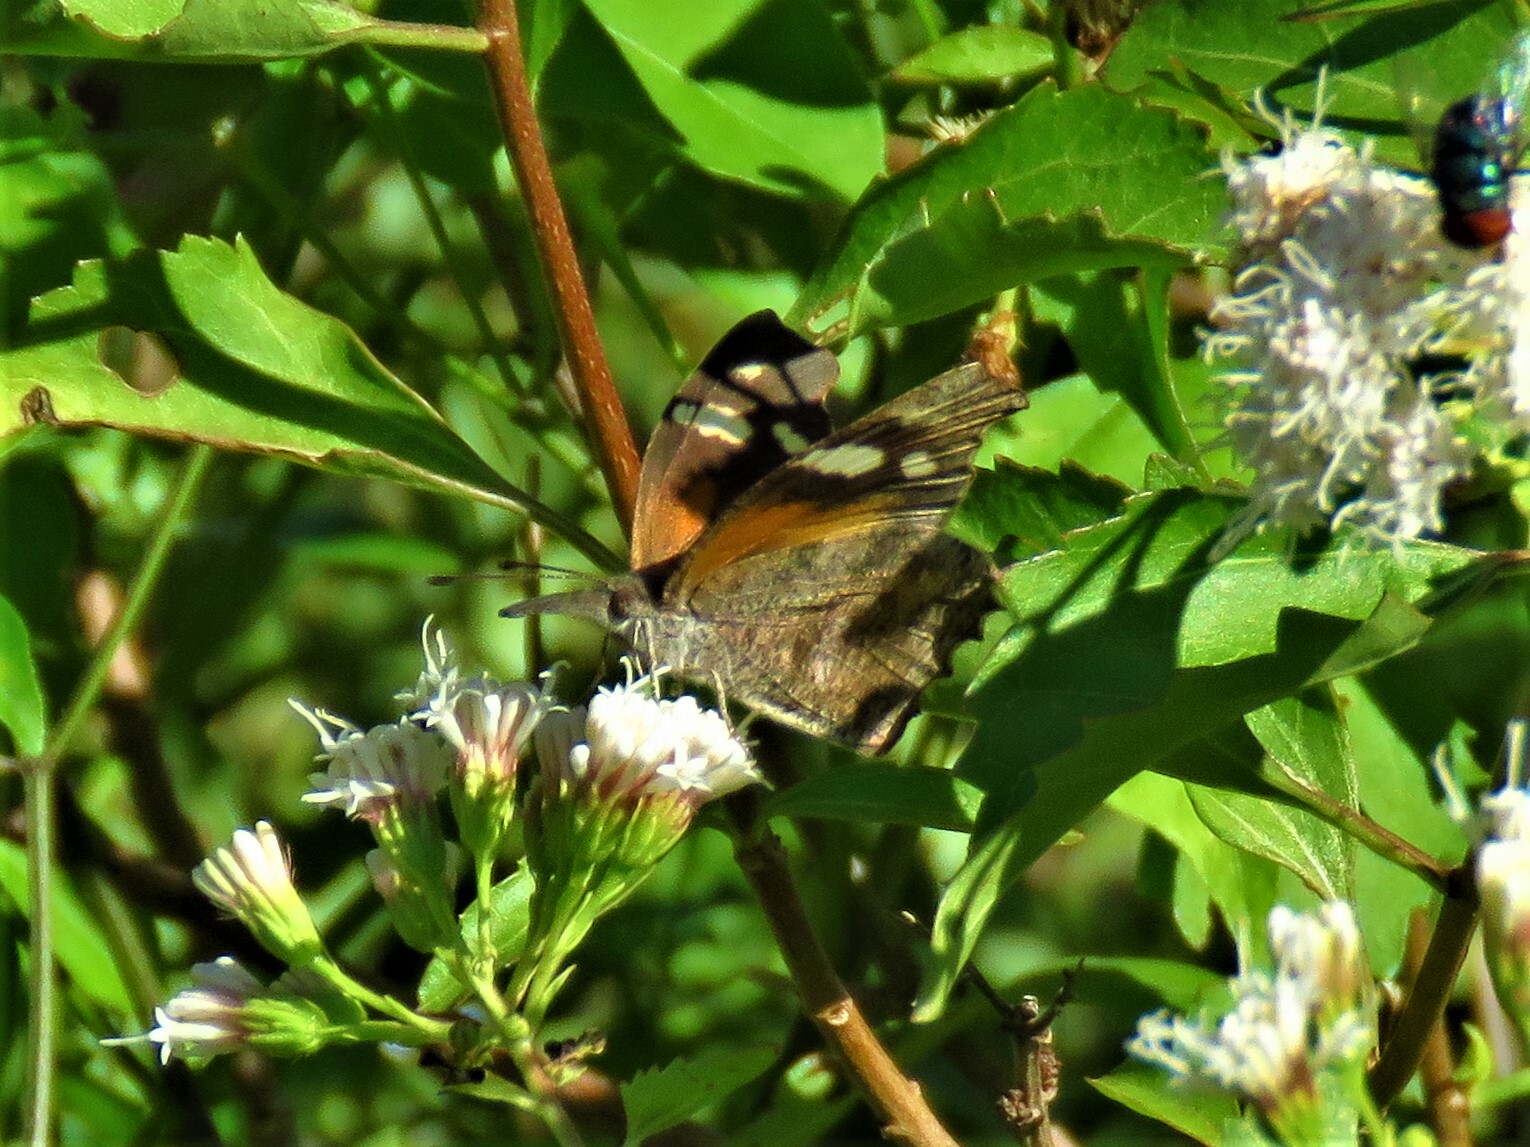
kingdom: Animalia
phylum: Arthropoda
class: Insecta
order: Lepidoptera
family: Nymphalidae
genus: Libytheana
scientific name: Libytheana carinenta
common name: American snout
